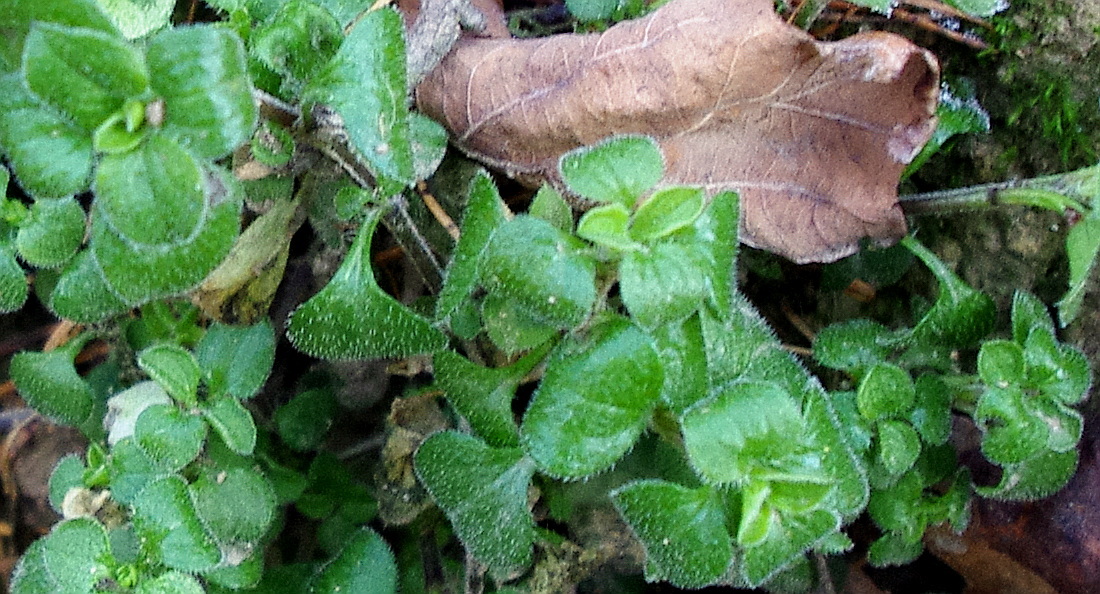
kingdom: Plantae
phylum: Tracheophyta
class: Magnoliopsida
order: Caryophyllales
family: Caryophyllaceae
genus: Moehringia
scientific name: Moehringia trinervia
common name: Three-nerved sandwort
